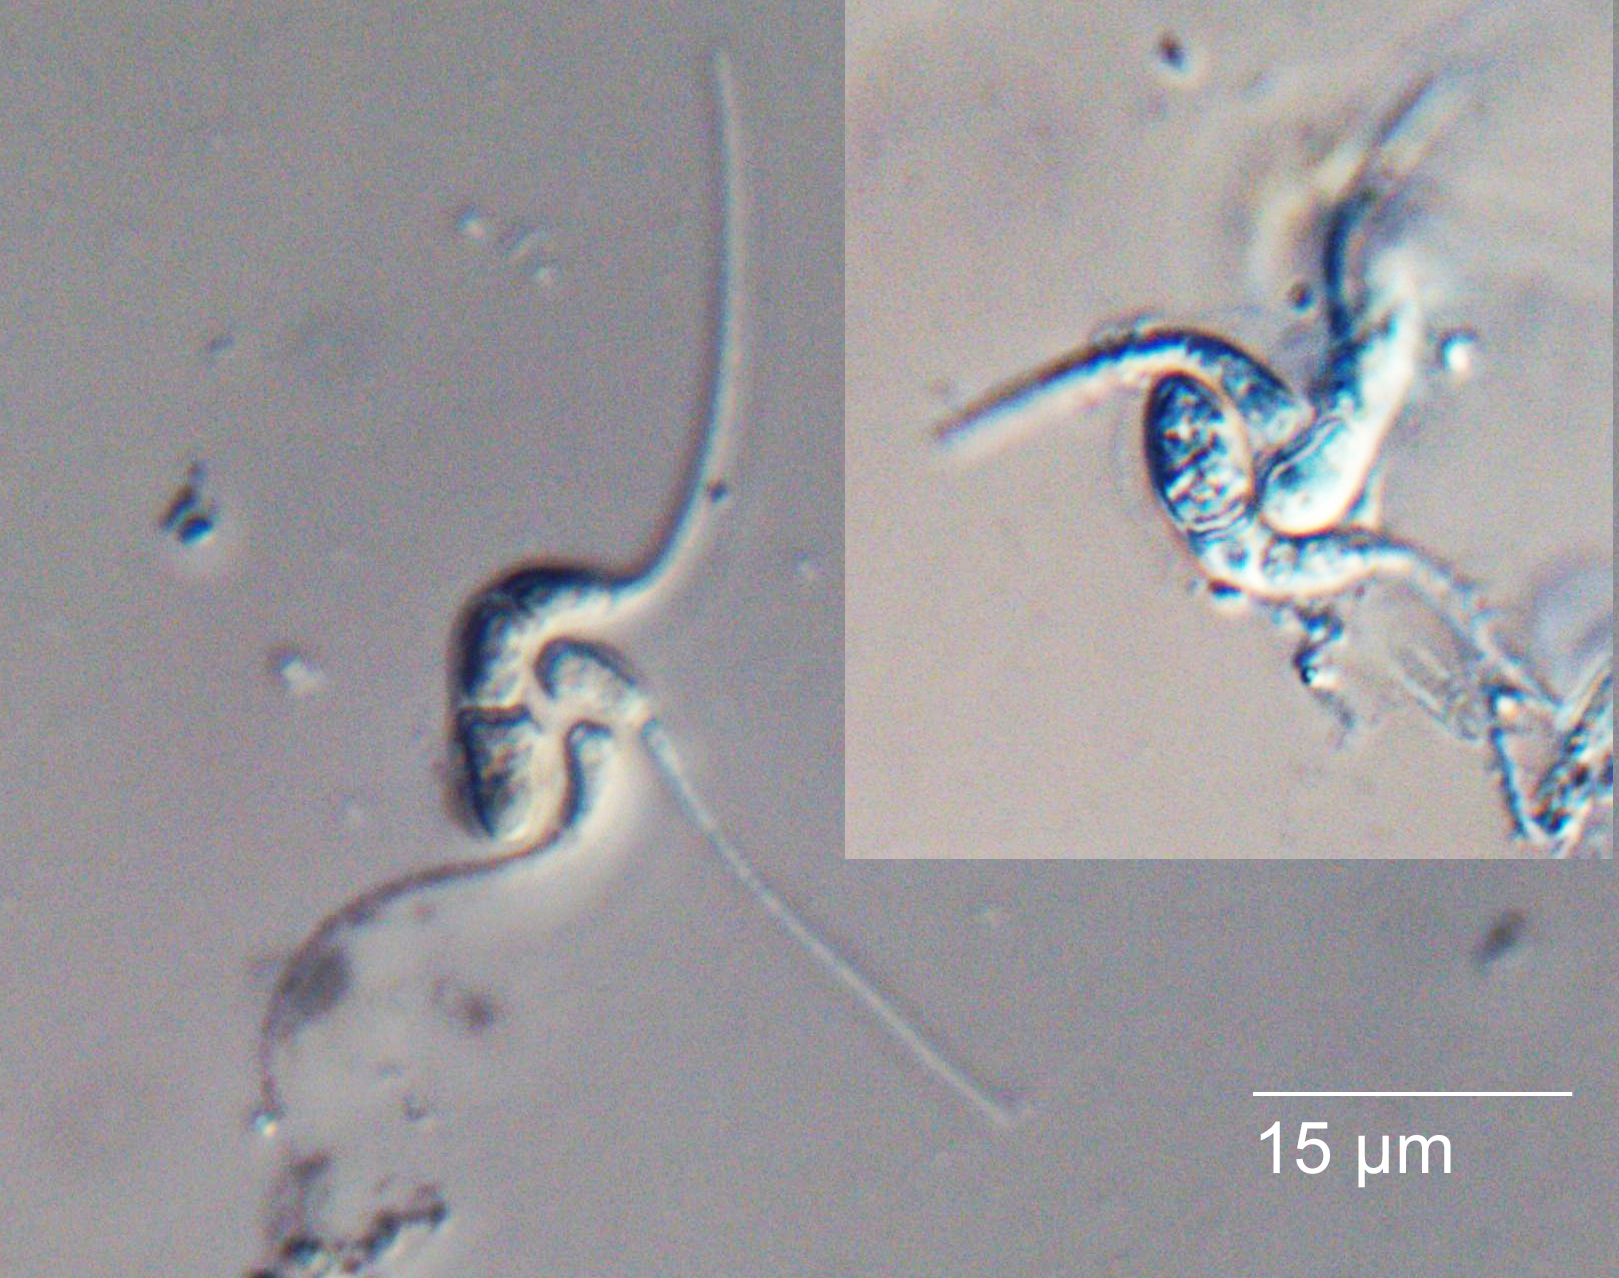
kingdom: Fungi
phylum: Ascomycota
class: Leotiomycetes
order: Helotiales
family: Discinellaceae
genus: Gyoerffyella
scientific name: Gyoerffyella craginiformis
